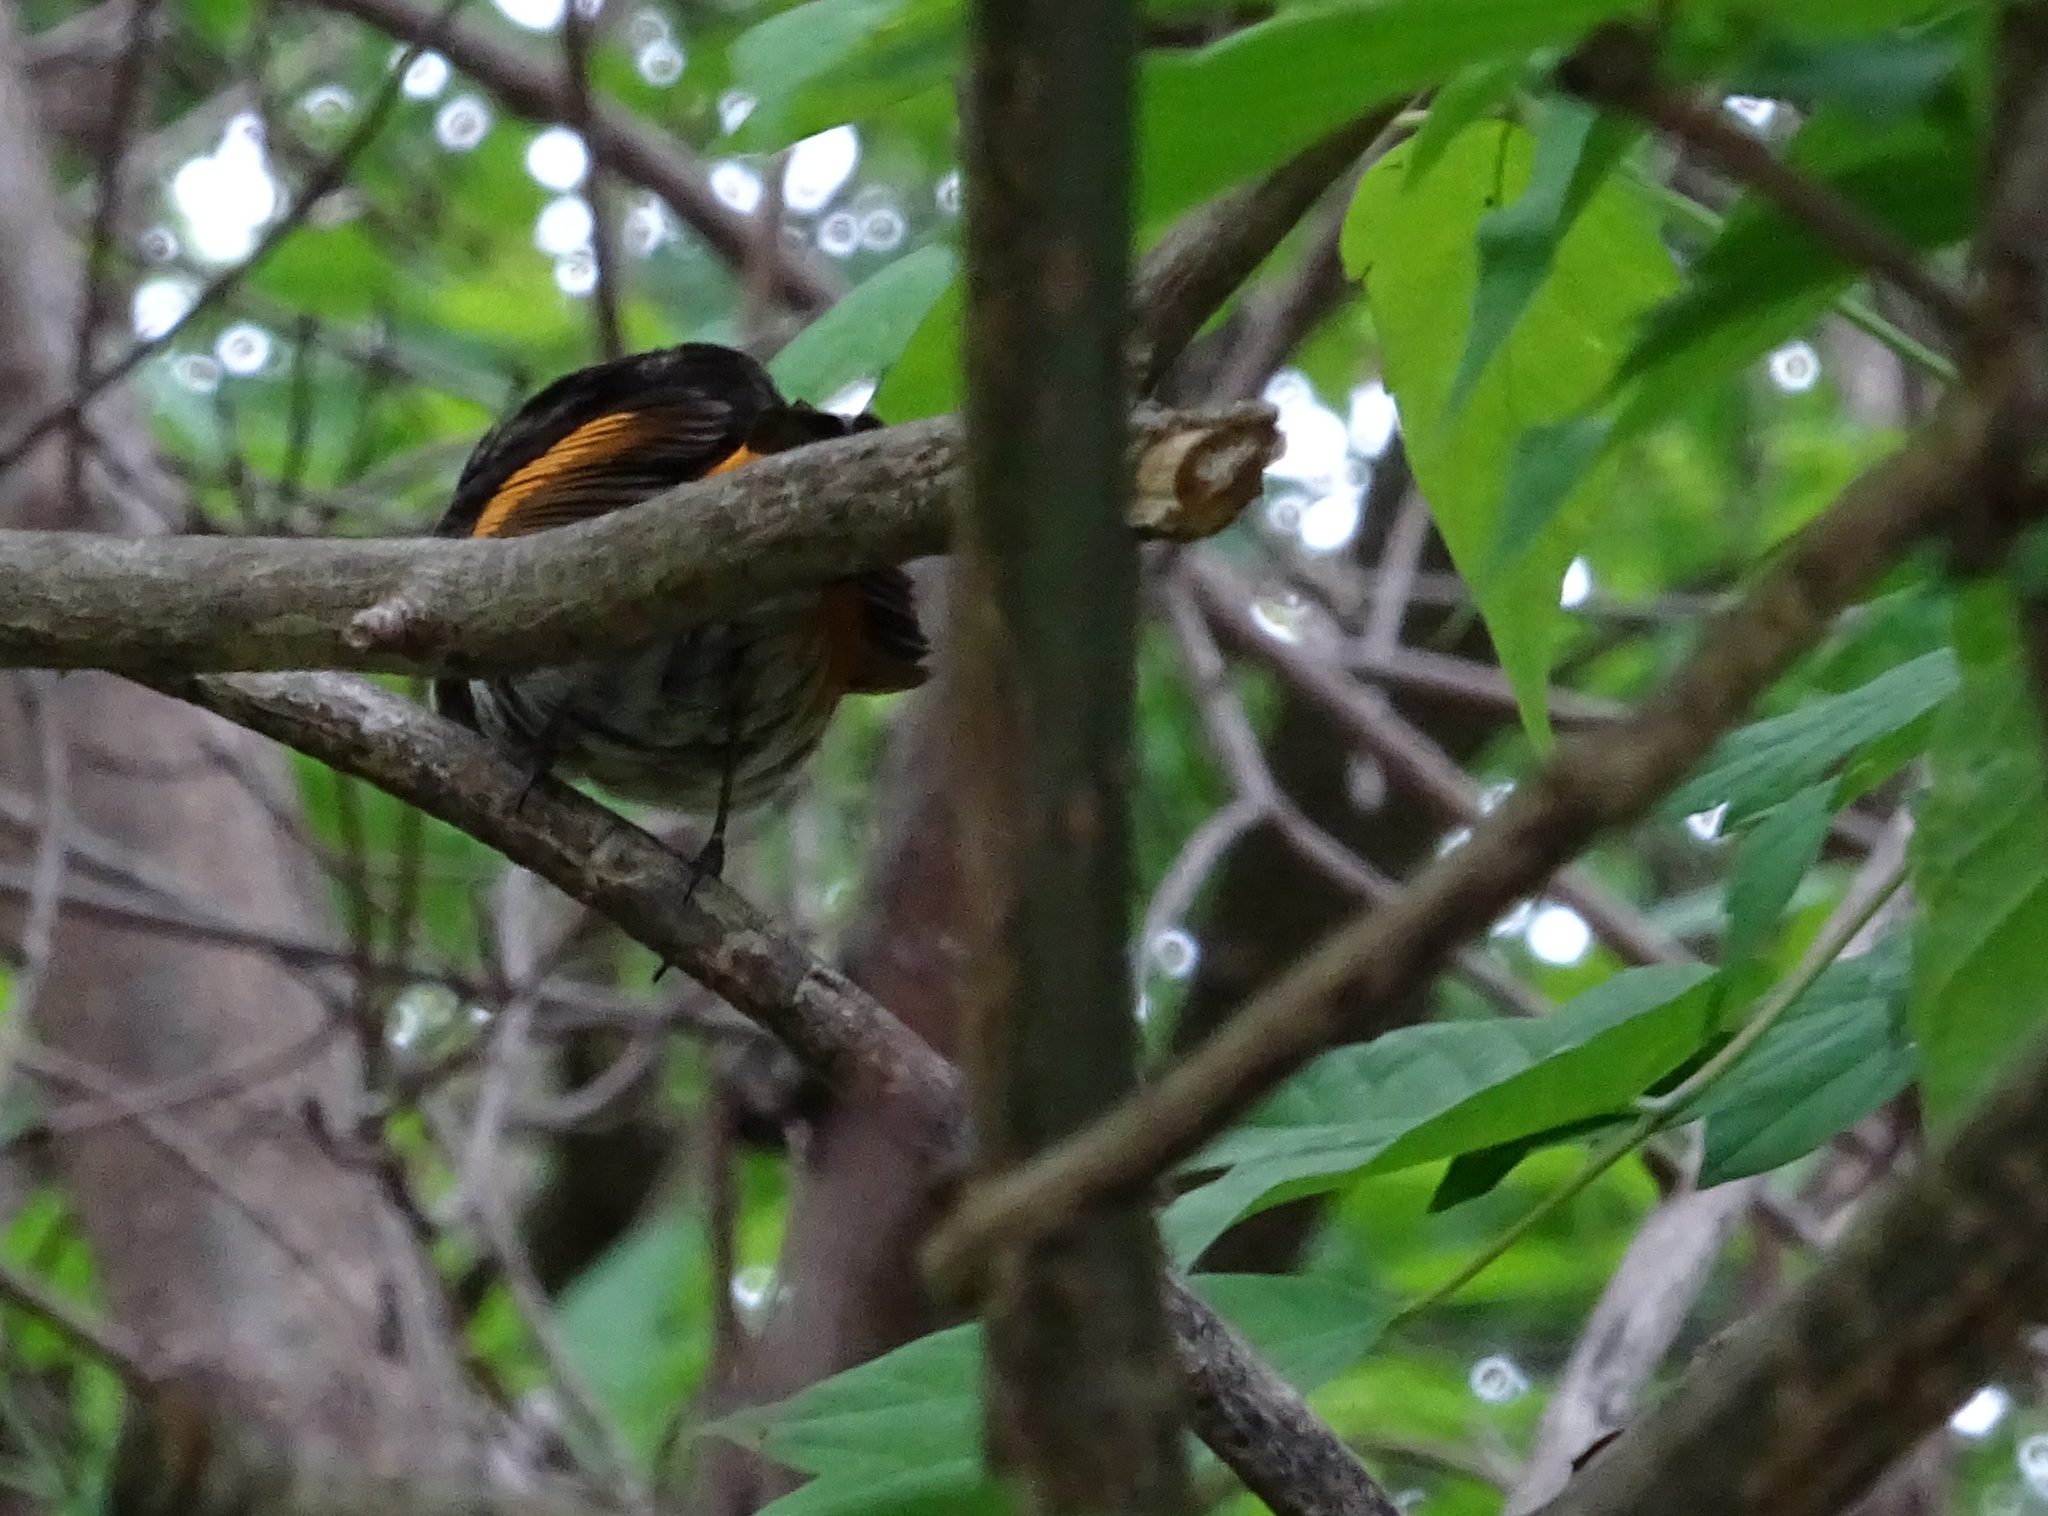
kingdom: Animalia
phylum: Chordata
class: Aves
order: Passeriformes
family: Parulidae
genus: Setophaga
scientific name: Setophaga ruticilla
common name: American redstart
